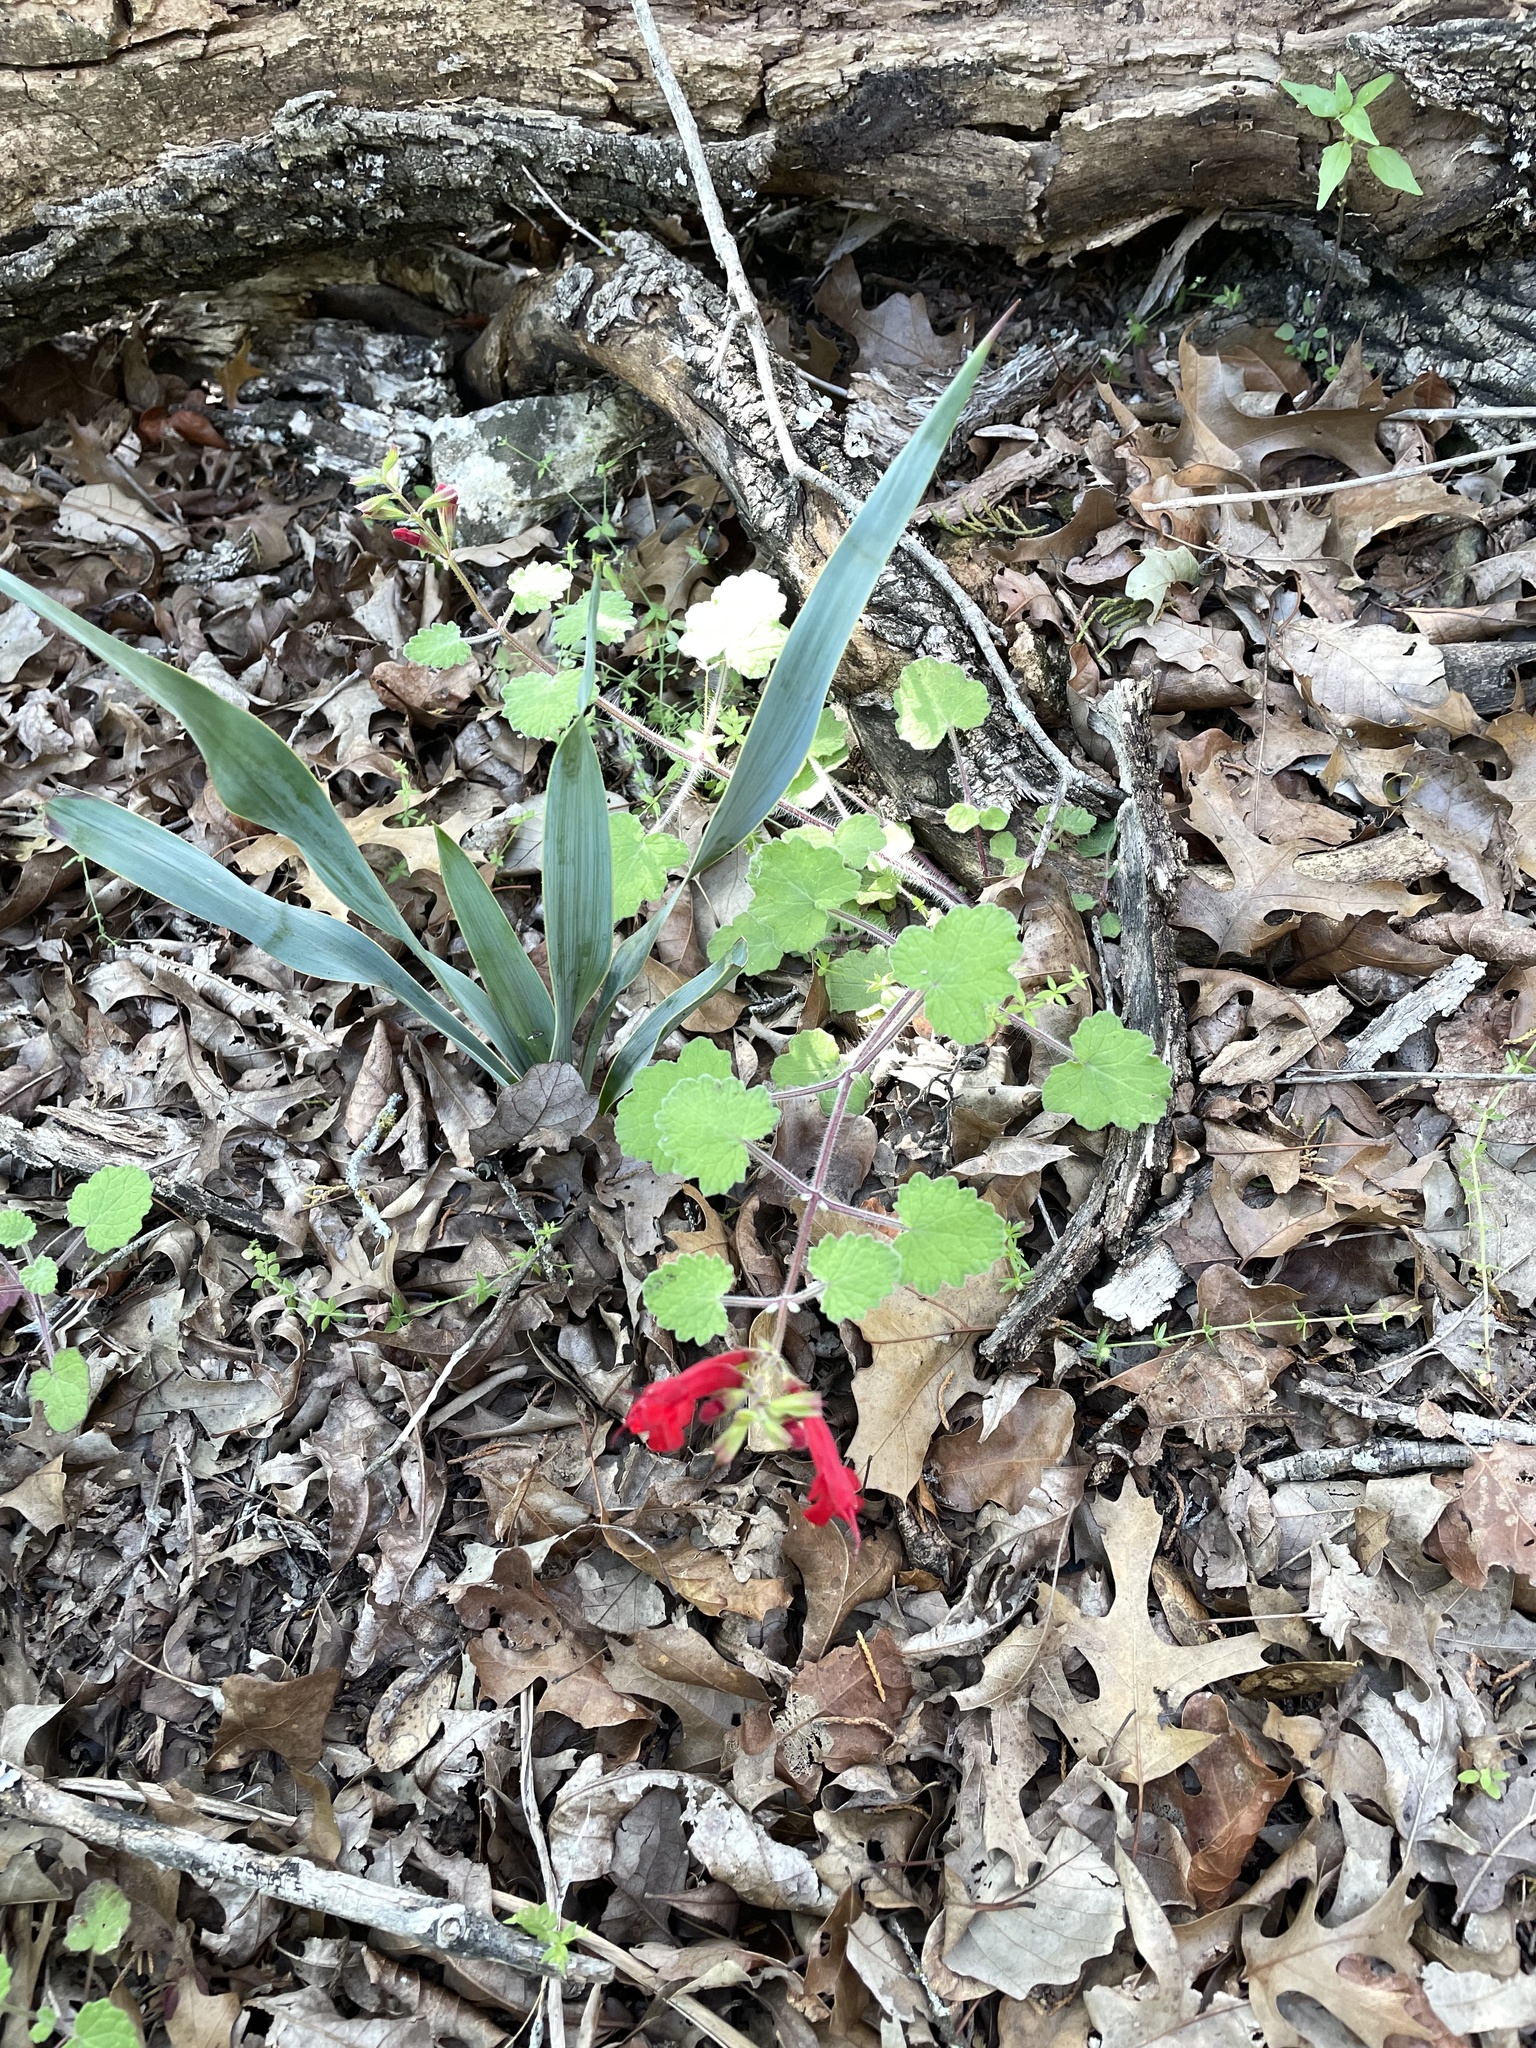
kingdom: Plantae
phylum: Tracheophyta
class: Magnoliopsida
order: Lamiales
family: Lamiaceae
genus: Salvia
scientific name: Salvia roemeriana
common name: Cedar sage
